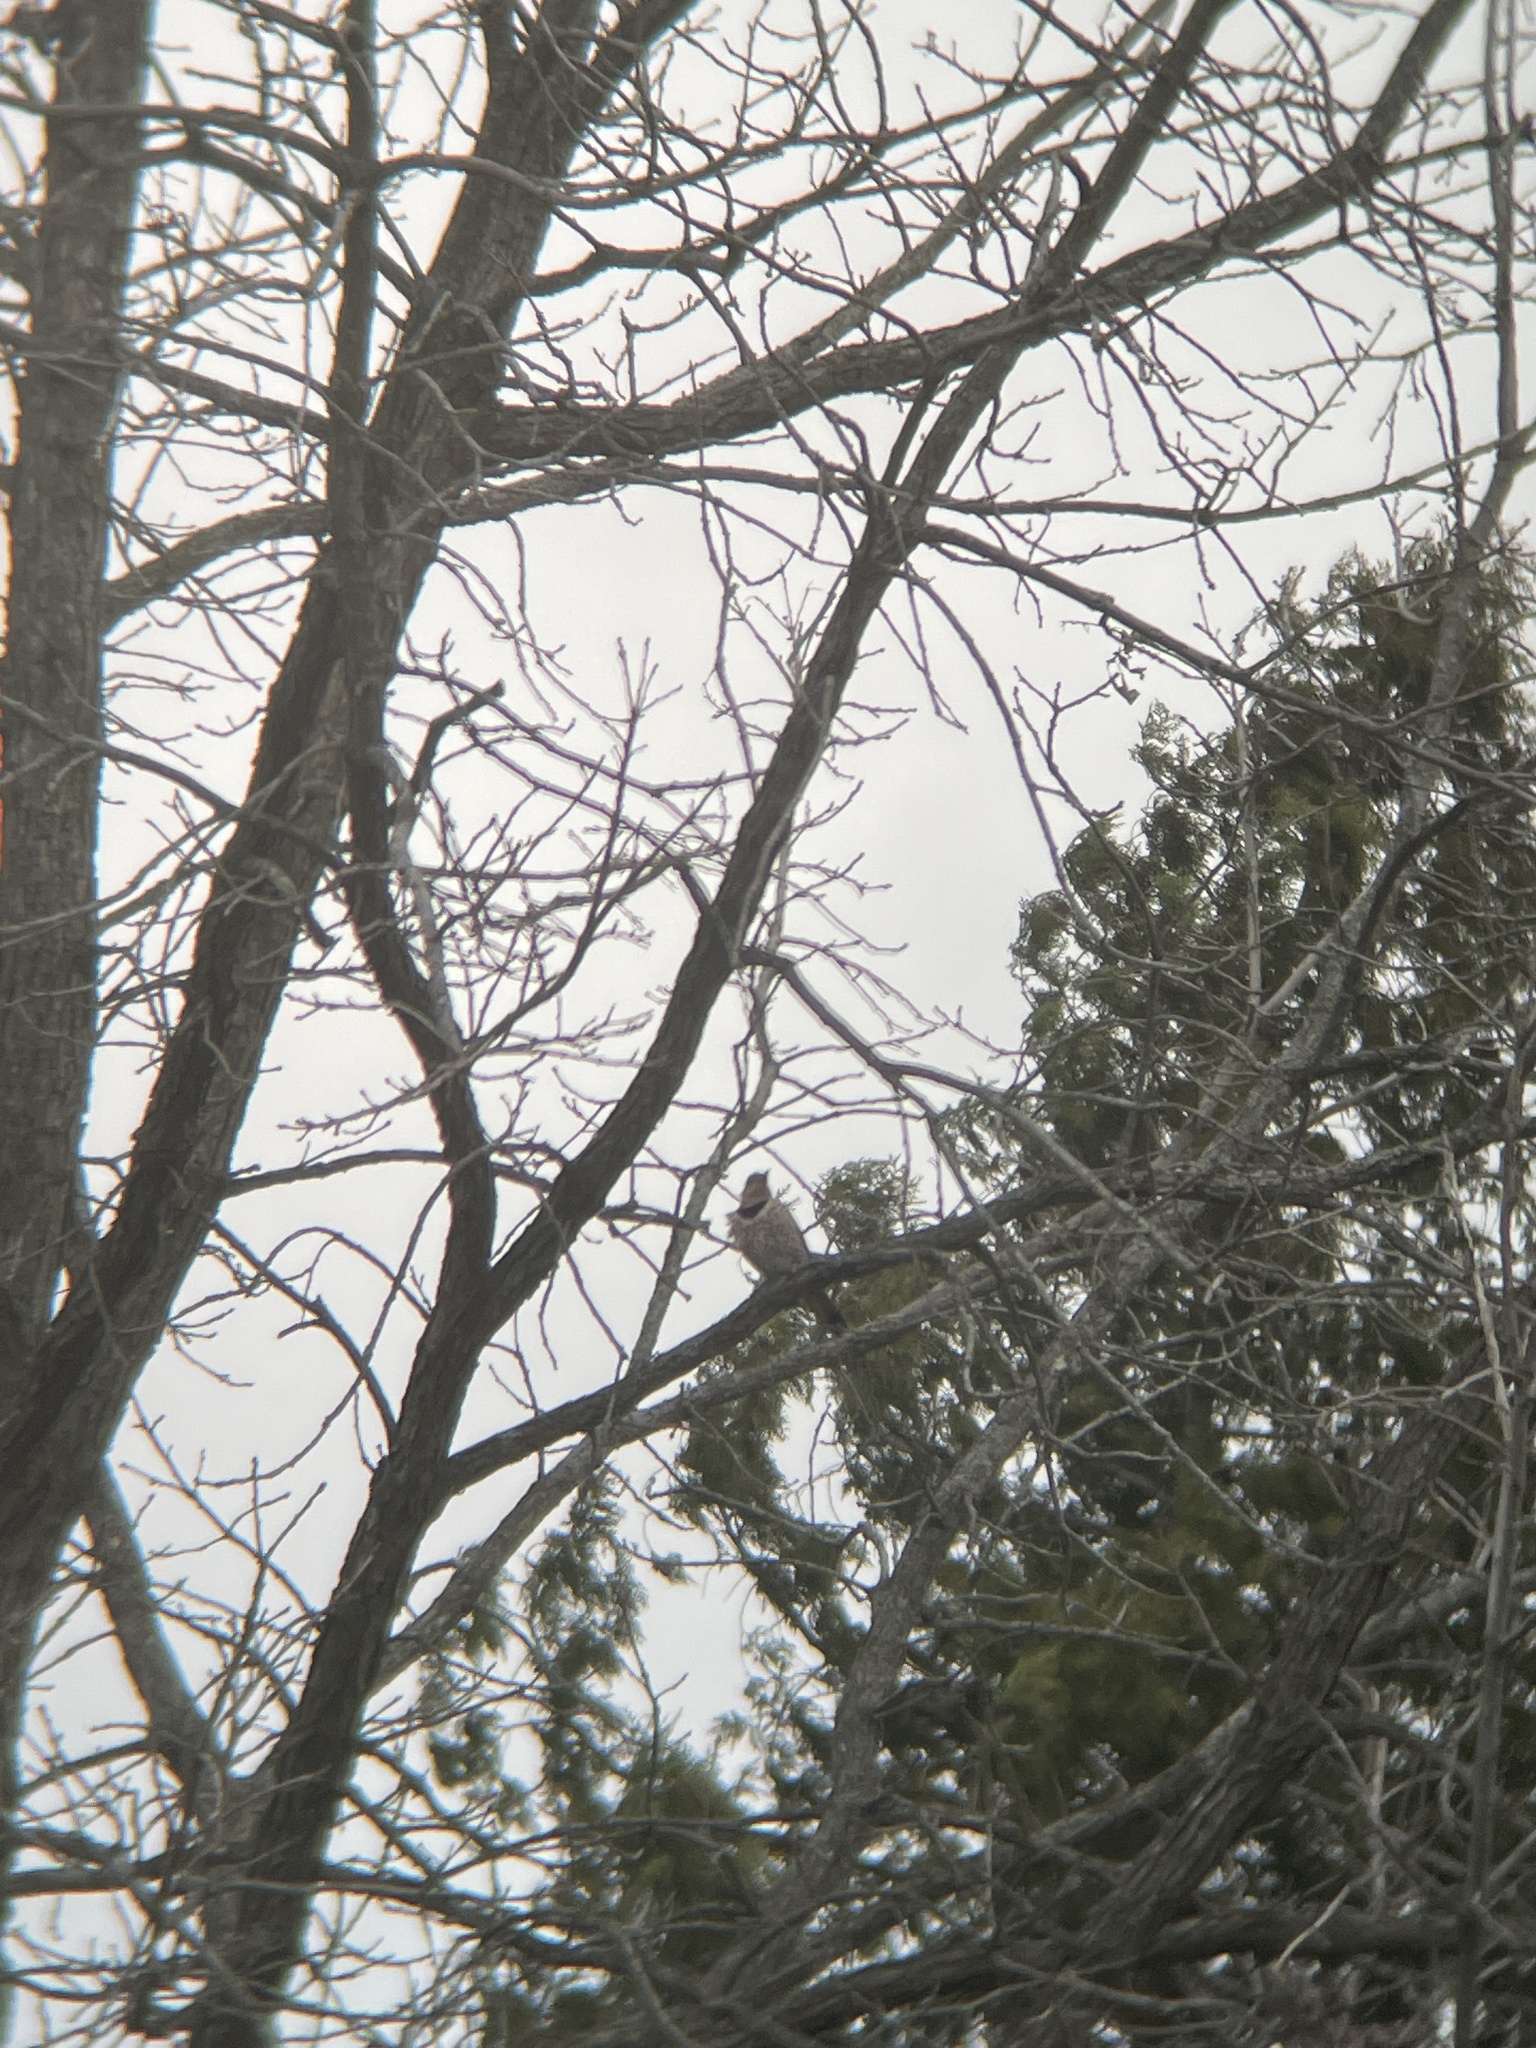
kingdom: Animalia
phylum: Chordata
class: Aves
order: Piciformes
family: Picidae
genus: Colaptes
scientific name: Colaptes auratus
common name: Northern flicker
